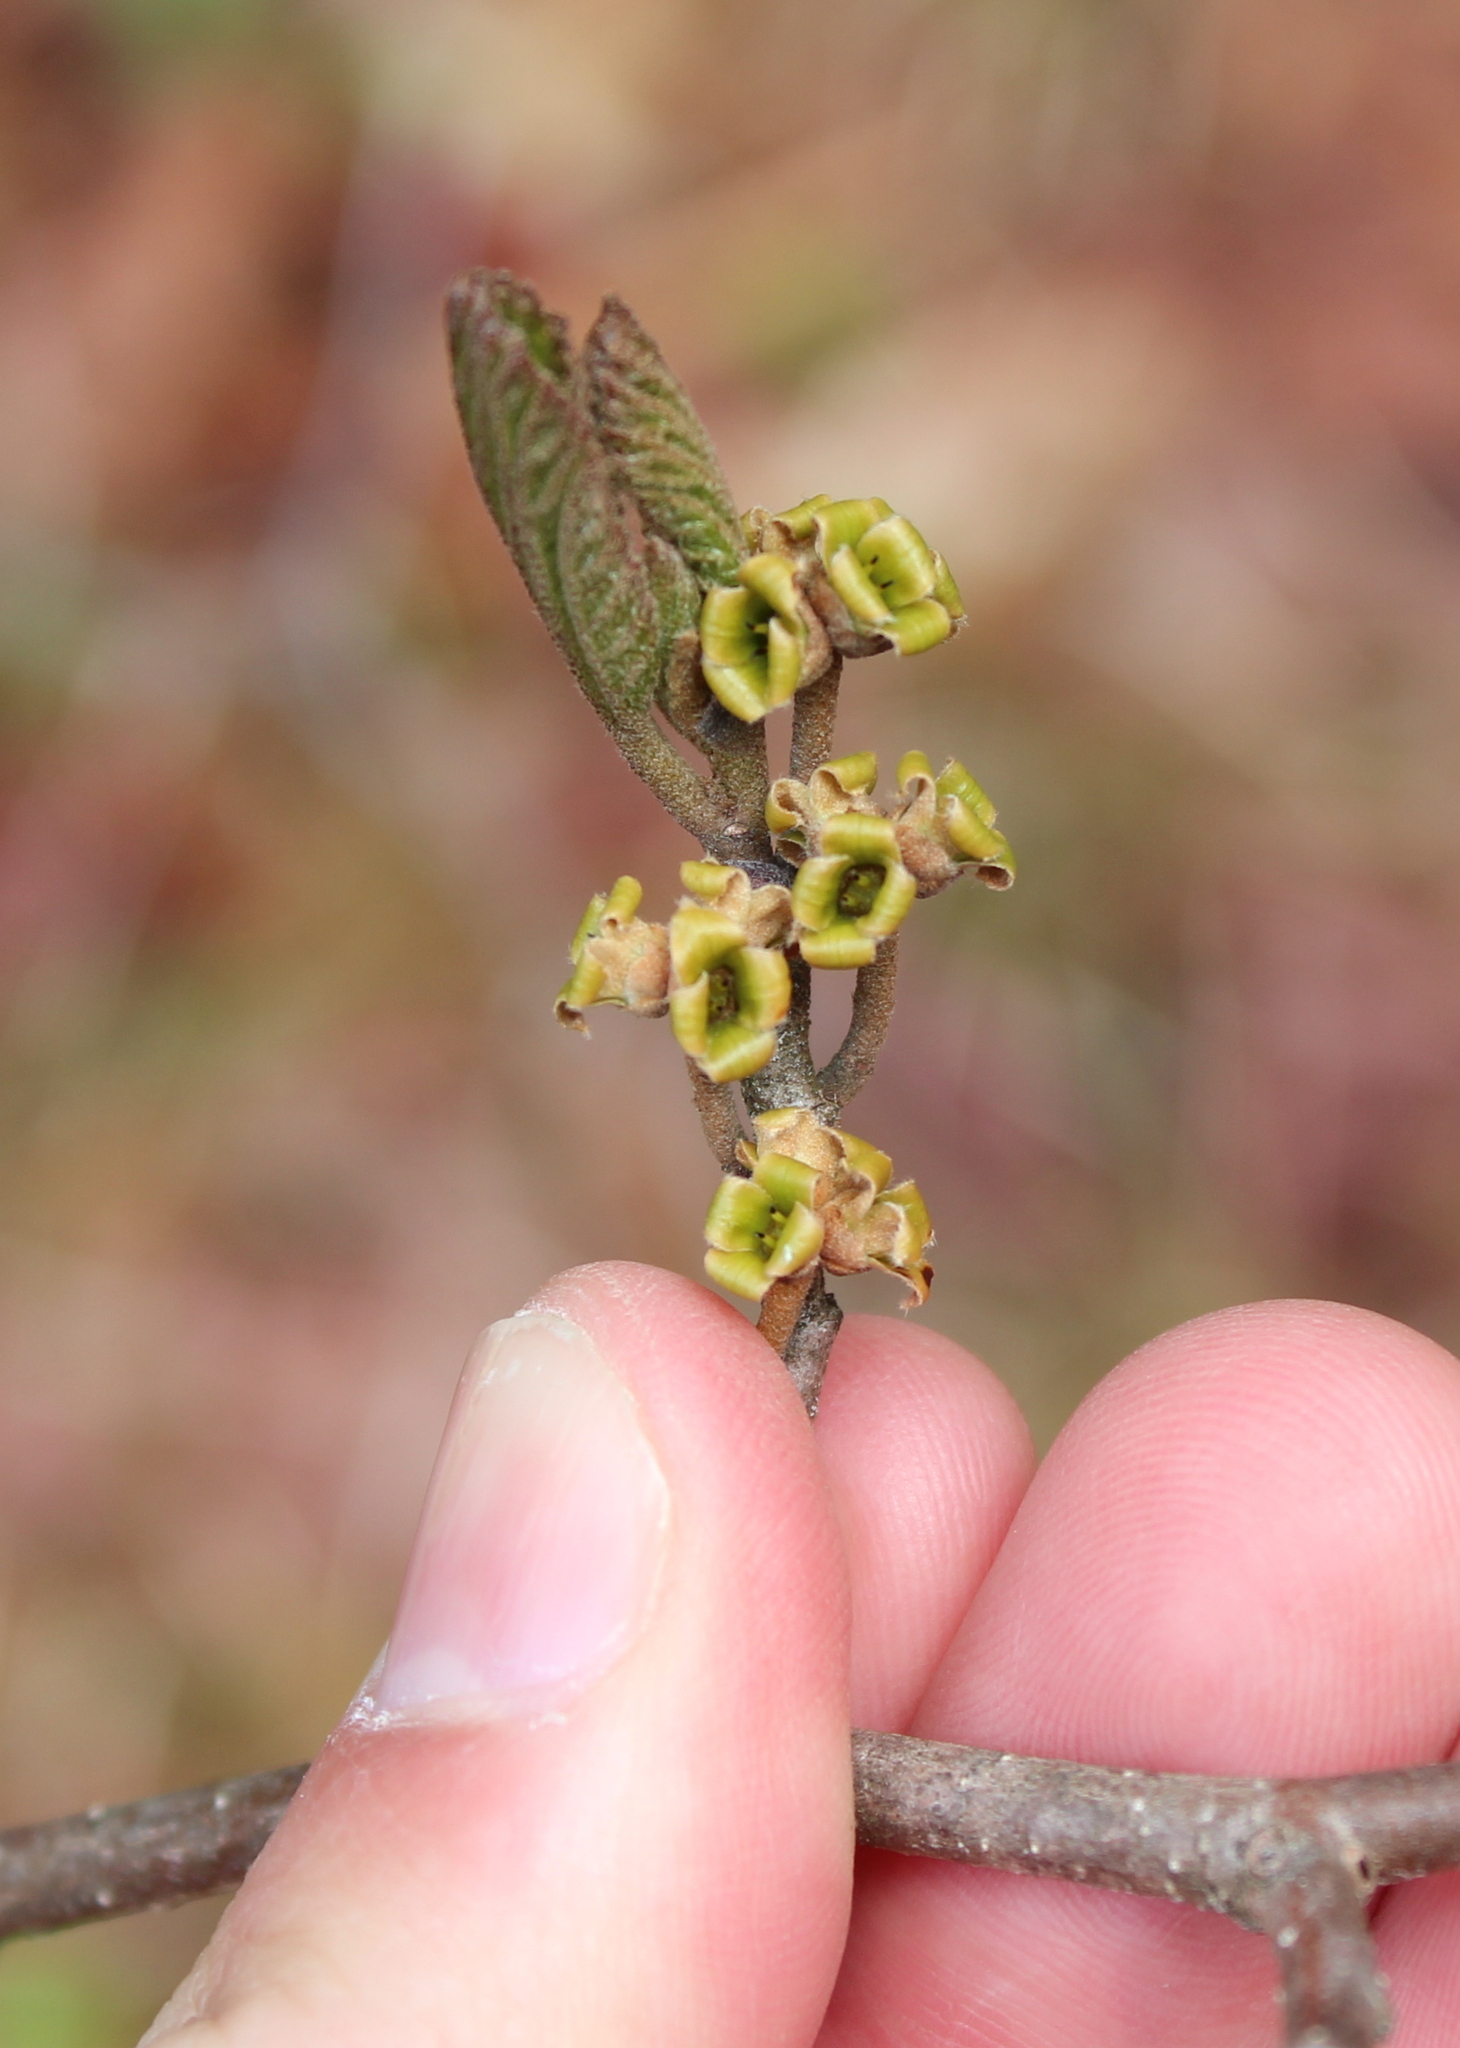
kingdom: Plantae
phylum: Tracheophyta
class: Magnoliopsida
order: Saxifragales
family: Hamamelidaceae
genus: Hamamelis
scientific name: Hamamelis virginiana
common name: Witch-hazel
